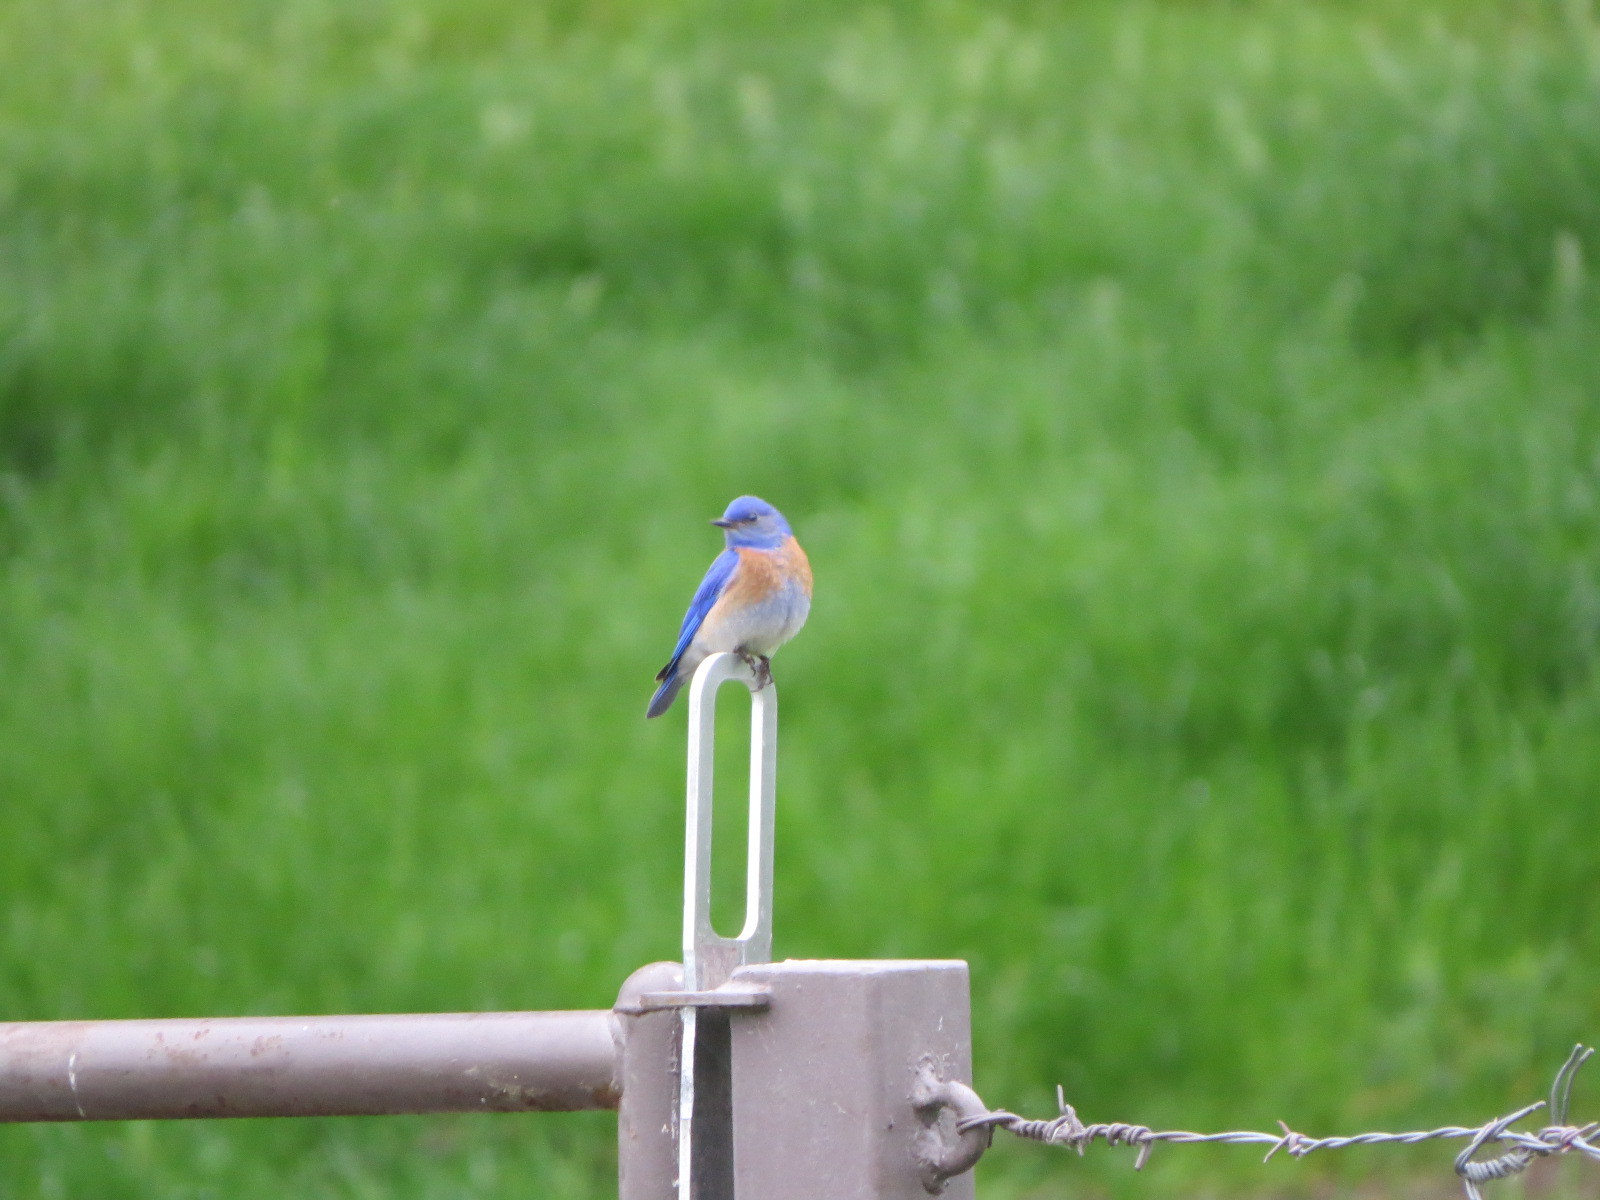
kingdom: Animalia
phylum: Chordata
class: Aves
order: Passeriformes
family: Turdidae
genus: Sialia
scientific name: Sialia mexicana
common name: Western bluebird
